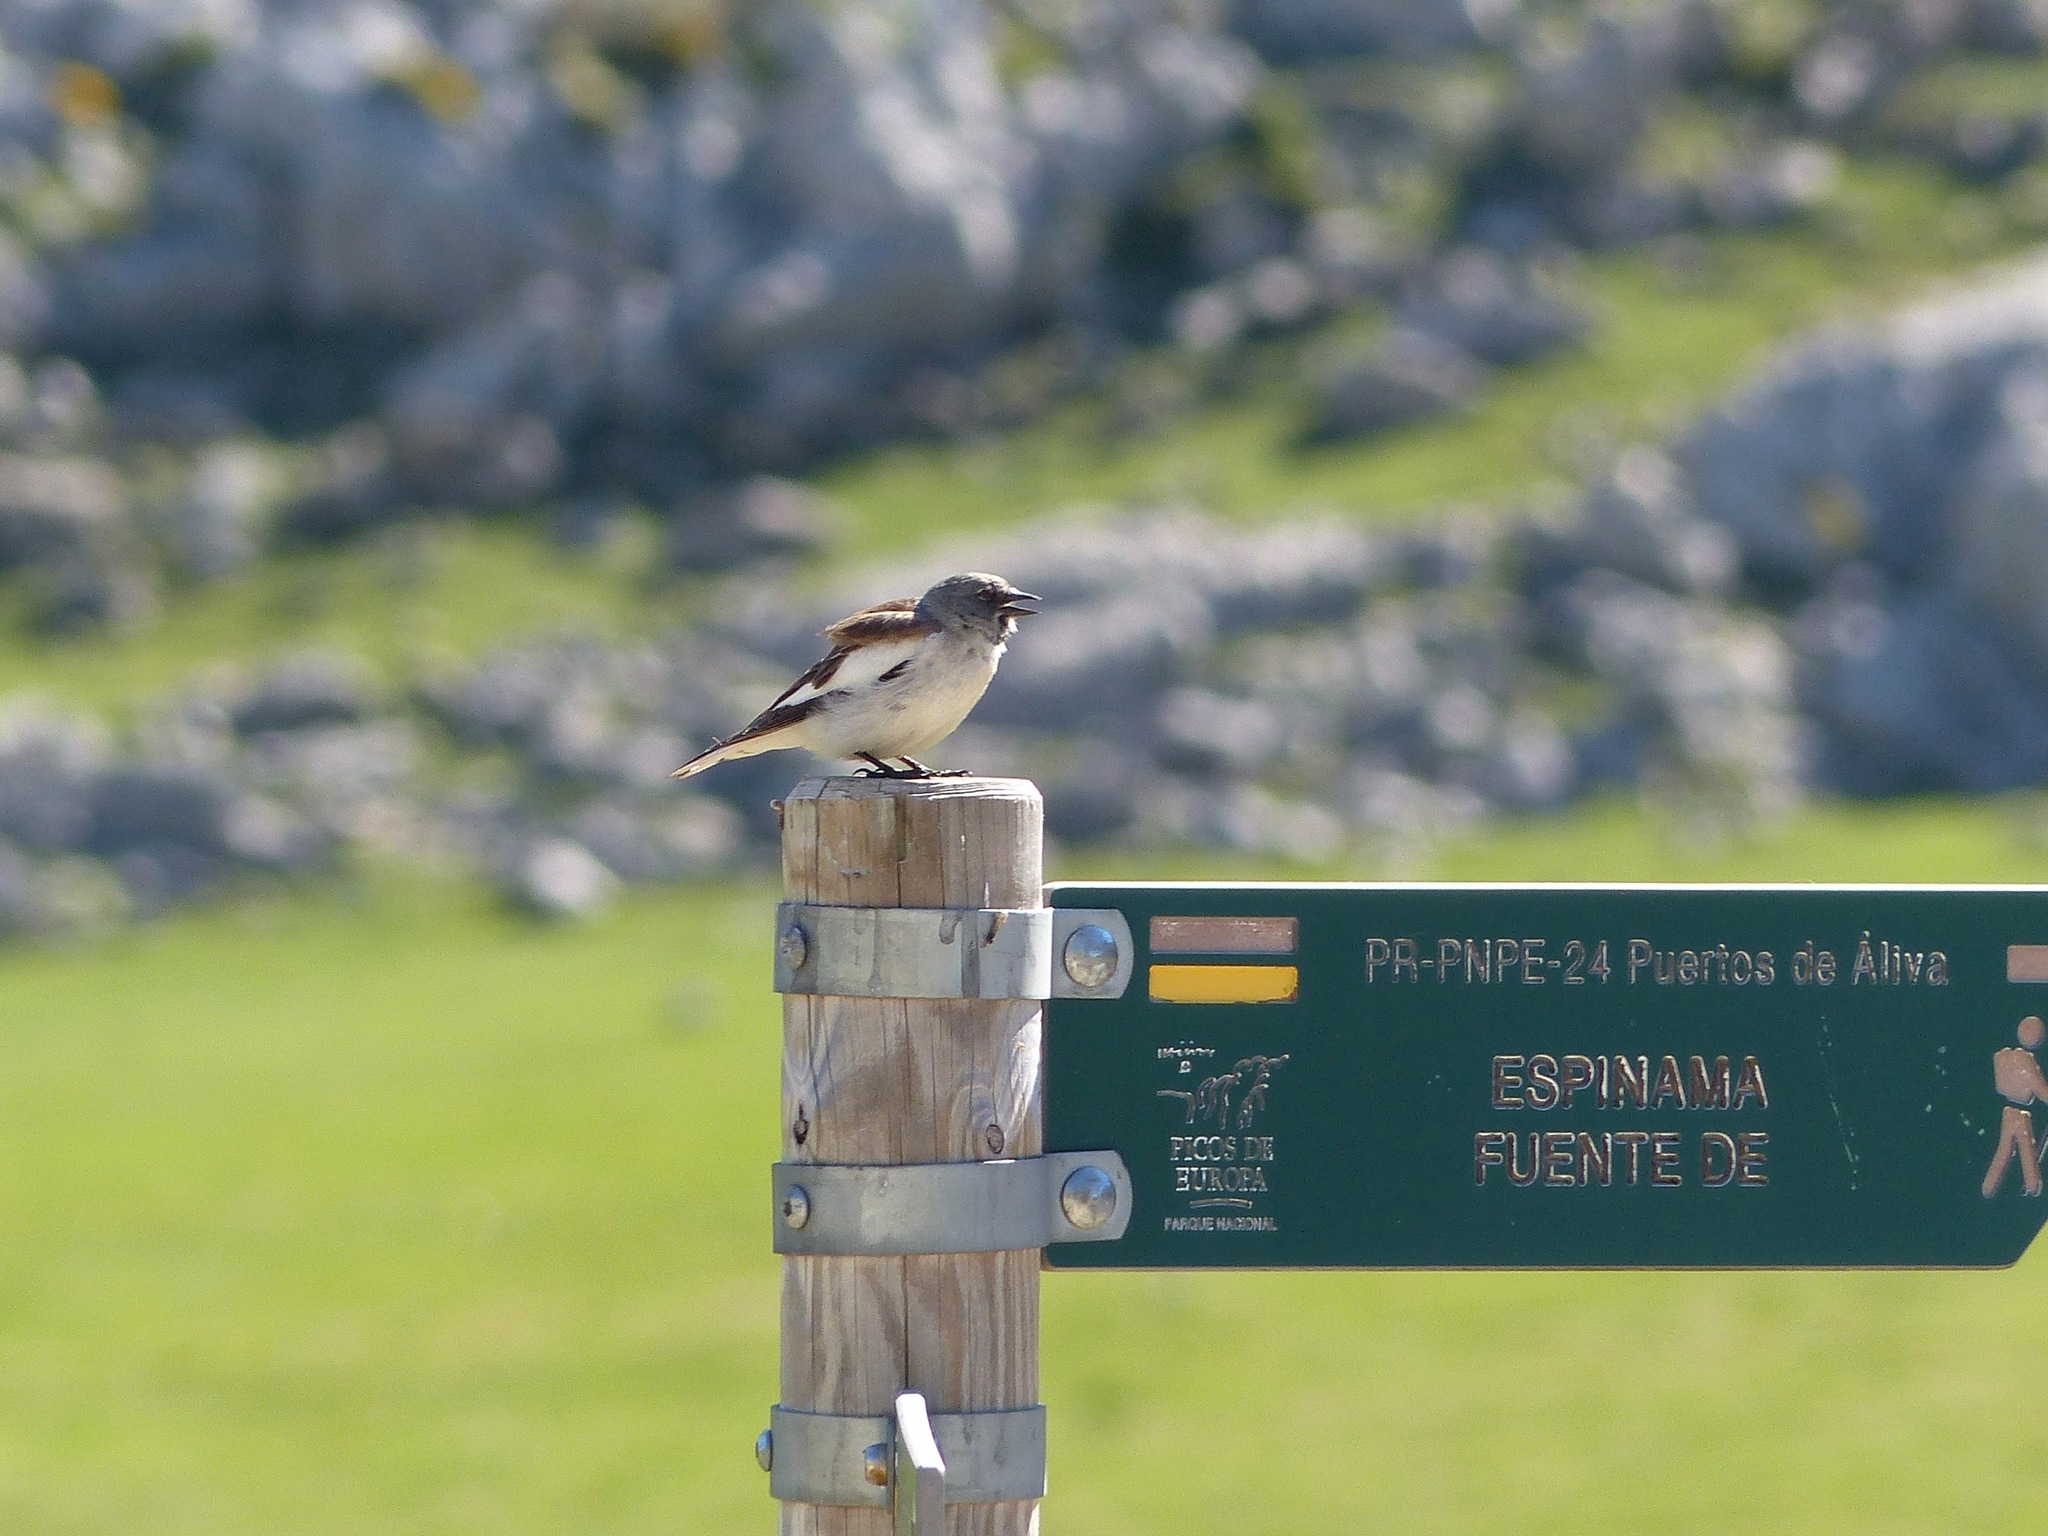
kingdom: Animalia
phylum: Chordata
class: Aves
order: Passeriformes
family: Passeridae
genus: Montifringilla
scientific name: Montifringilla nivalis
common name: White-winged snowfinch
